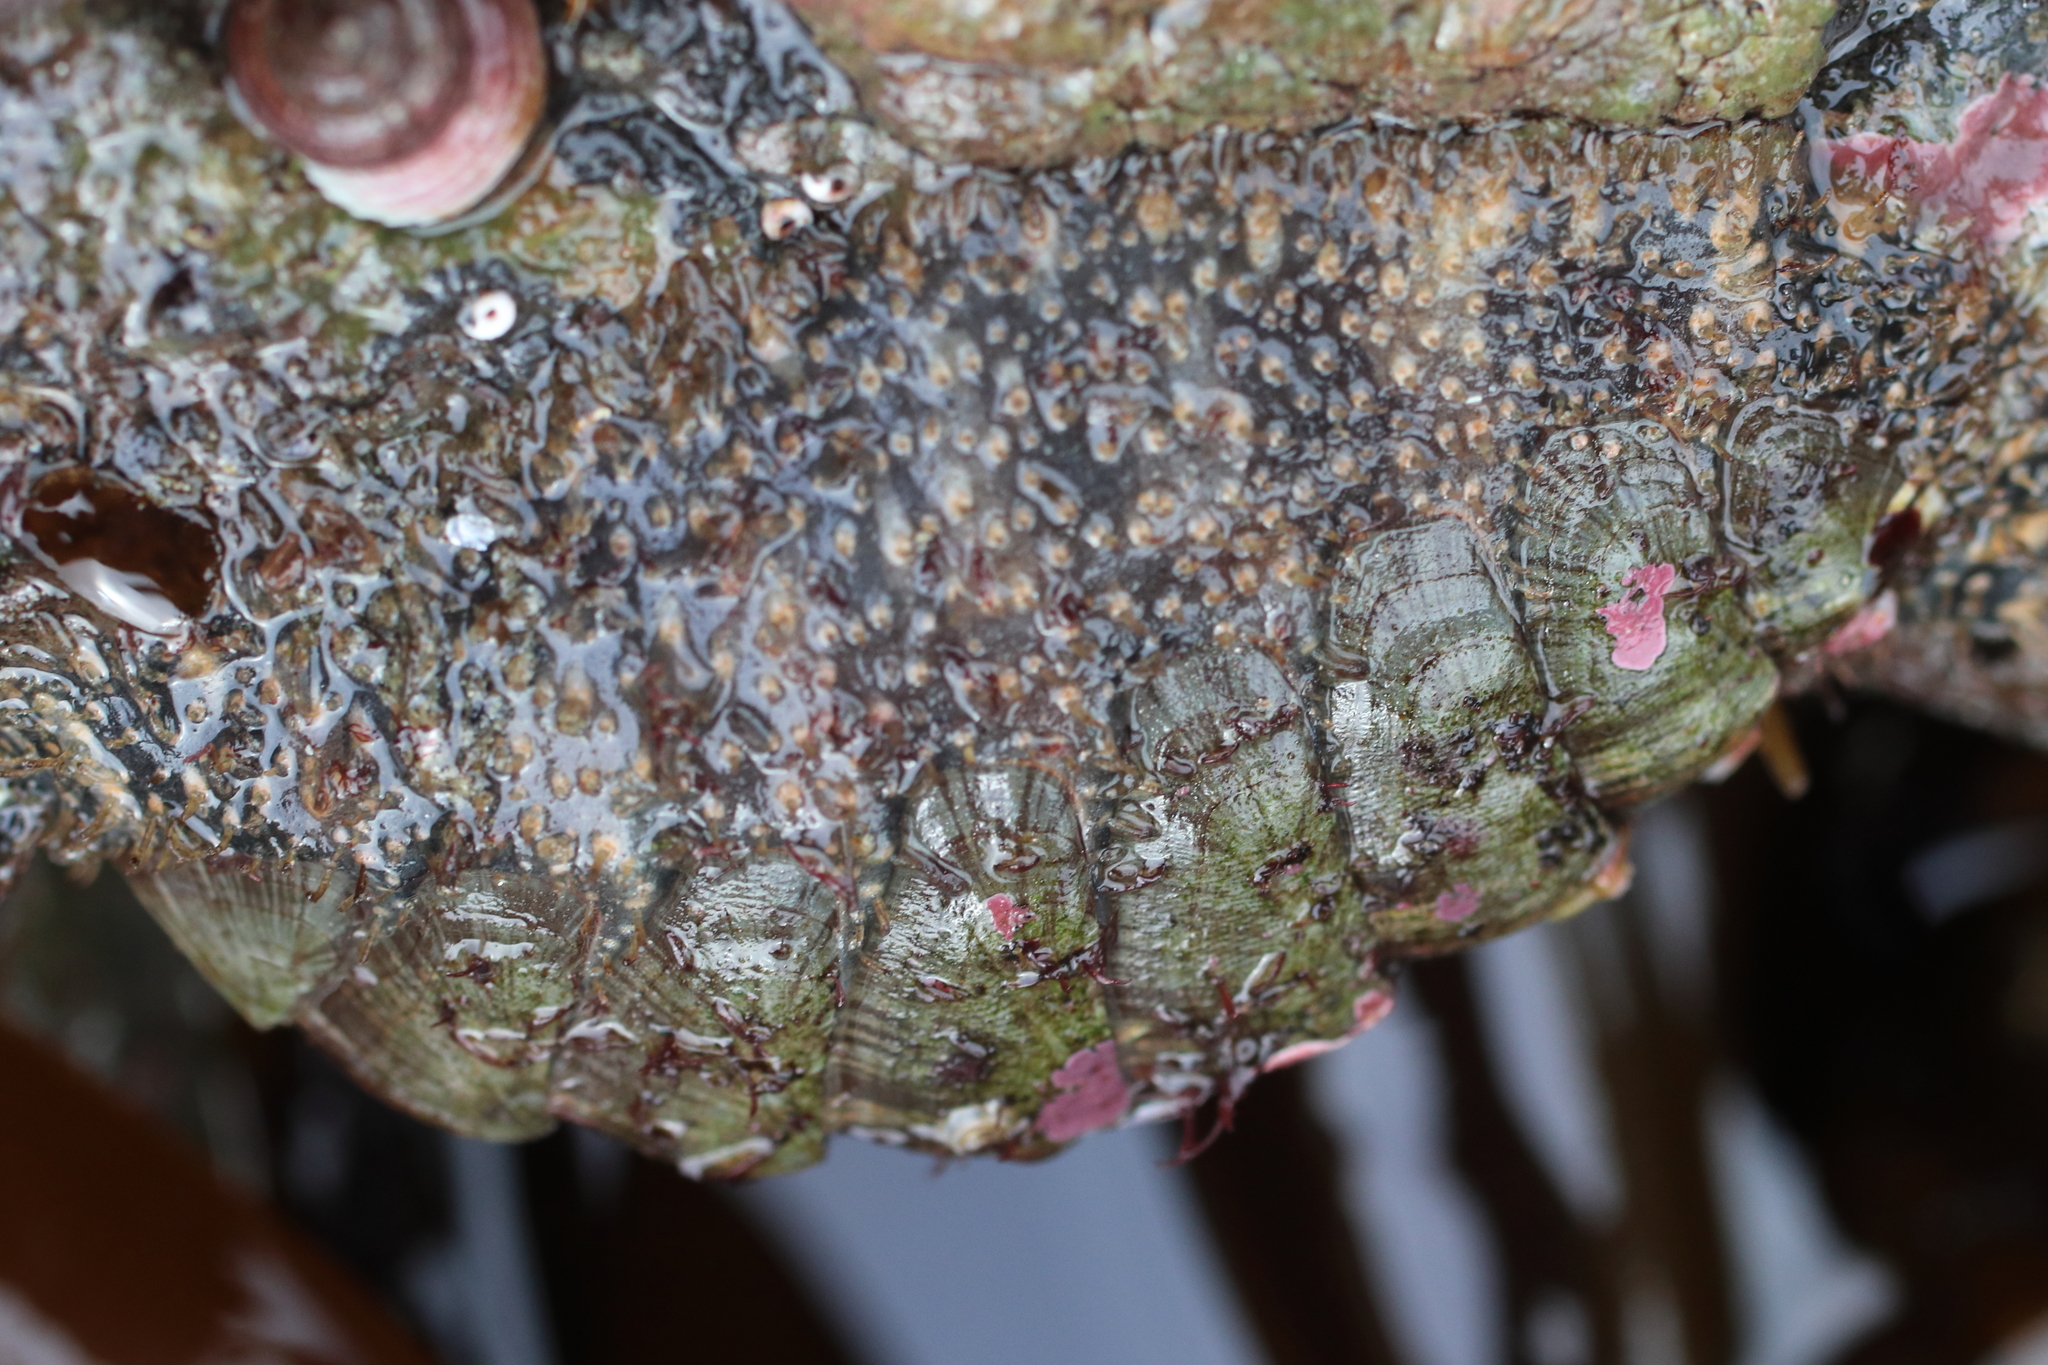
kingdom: Animalia
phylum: Mollusca
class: Polyplacophora
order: Chitonida
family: Mopaliidae
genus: Mopalia
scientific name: Mopalia lignosa
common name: Woody chiton
